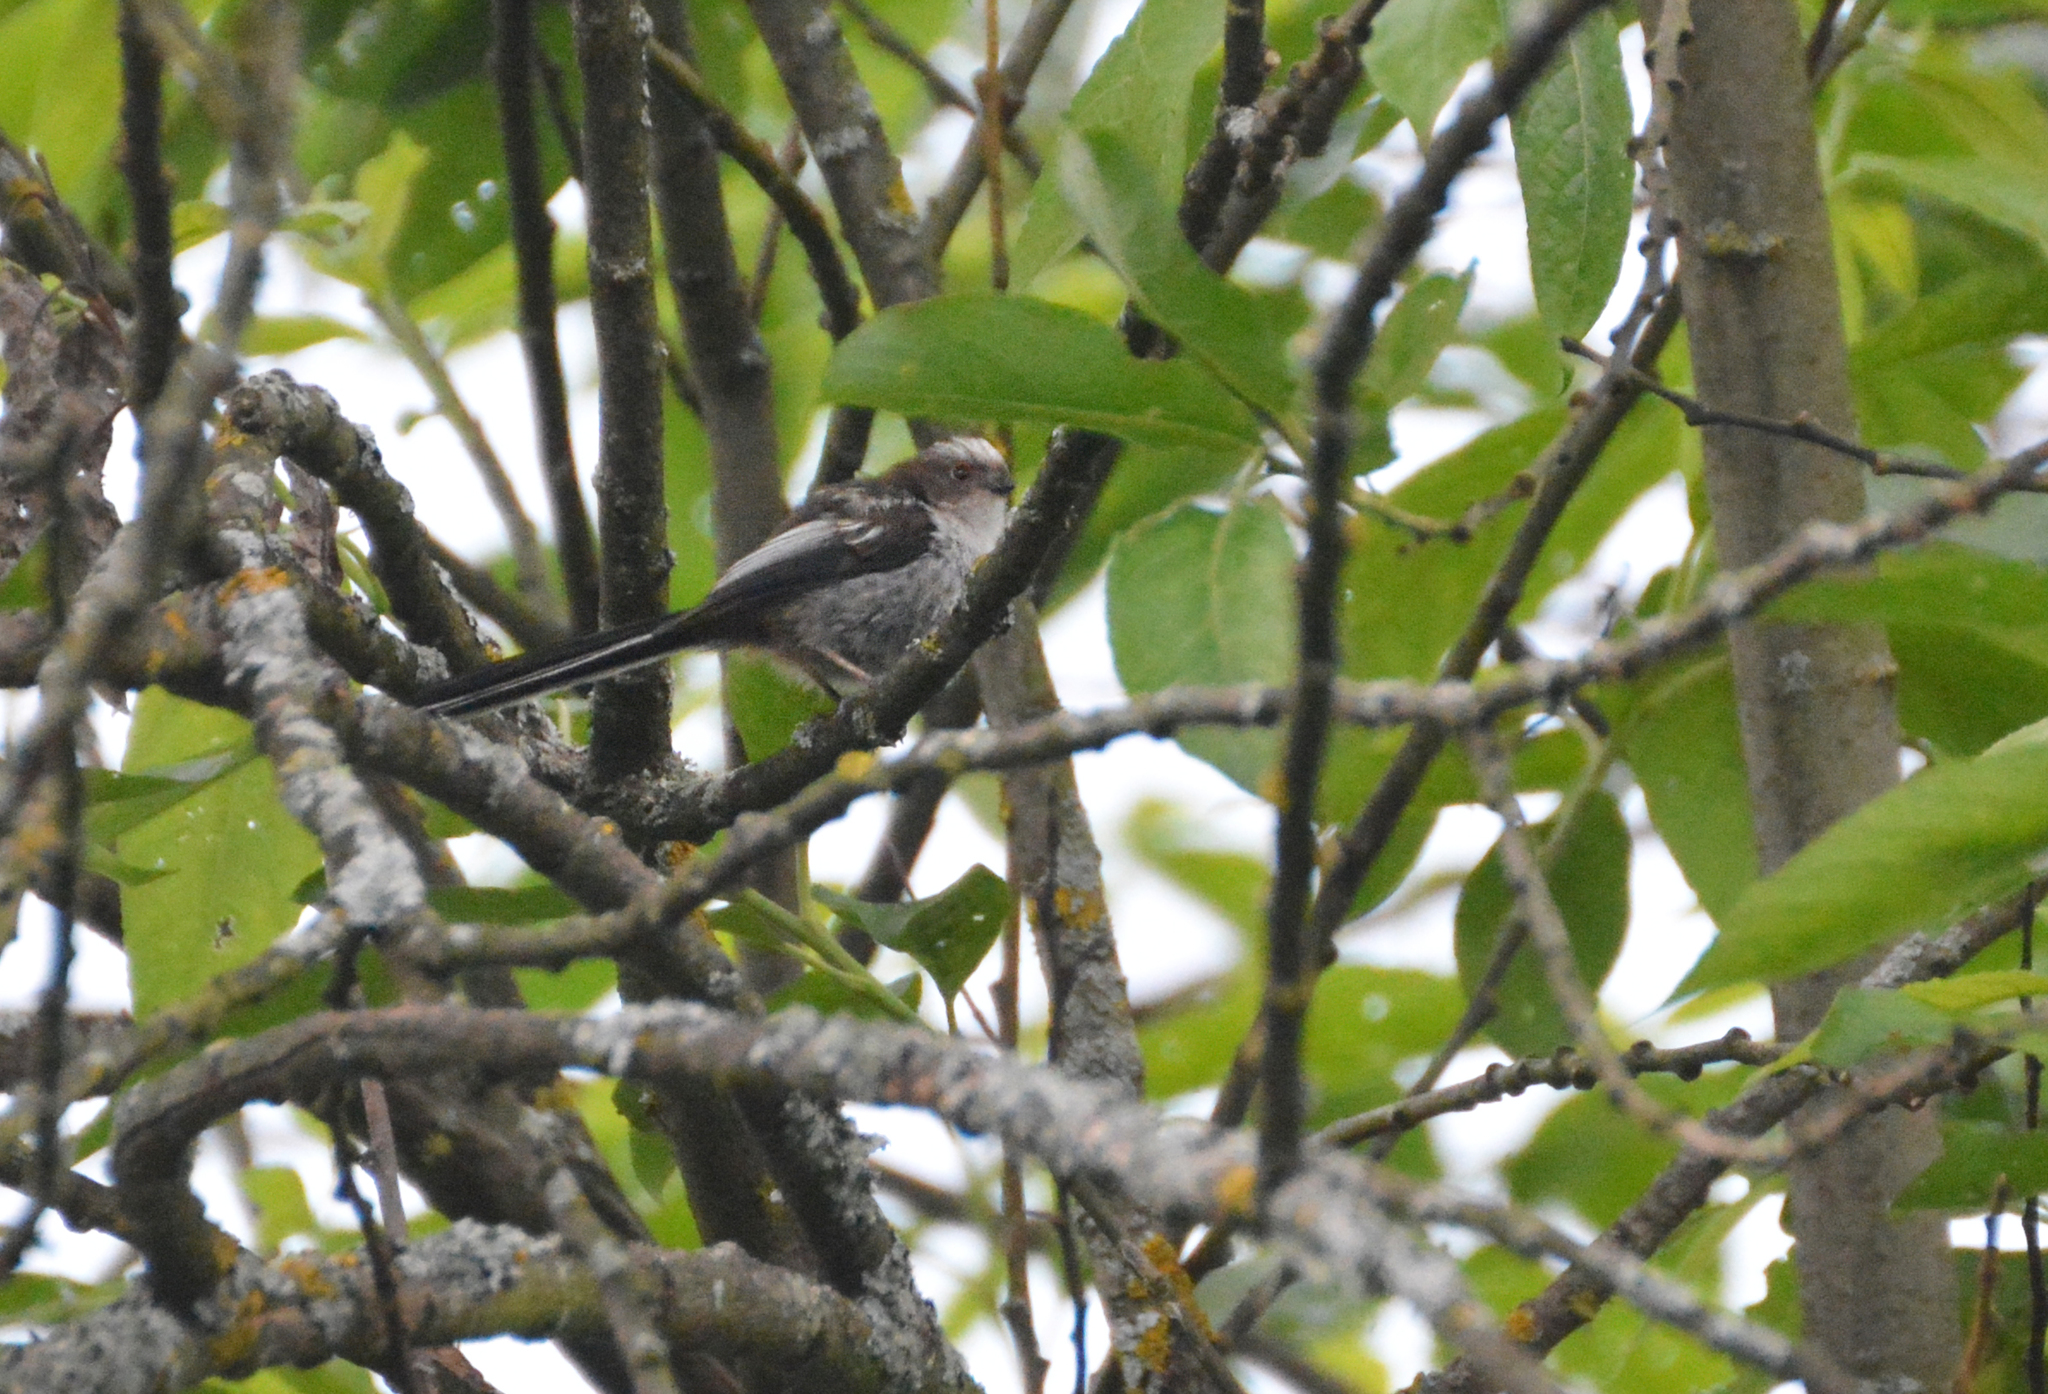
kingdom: Animalia
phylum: Chordata
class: Aves
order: Passeriformes
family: Aegithalidae
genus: Aegithalos
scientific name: Aegithalos caudatus
